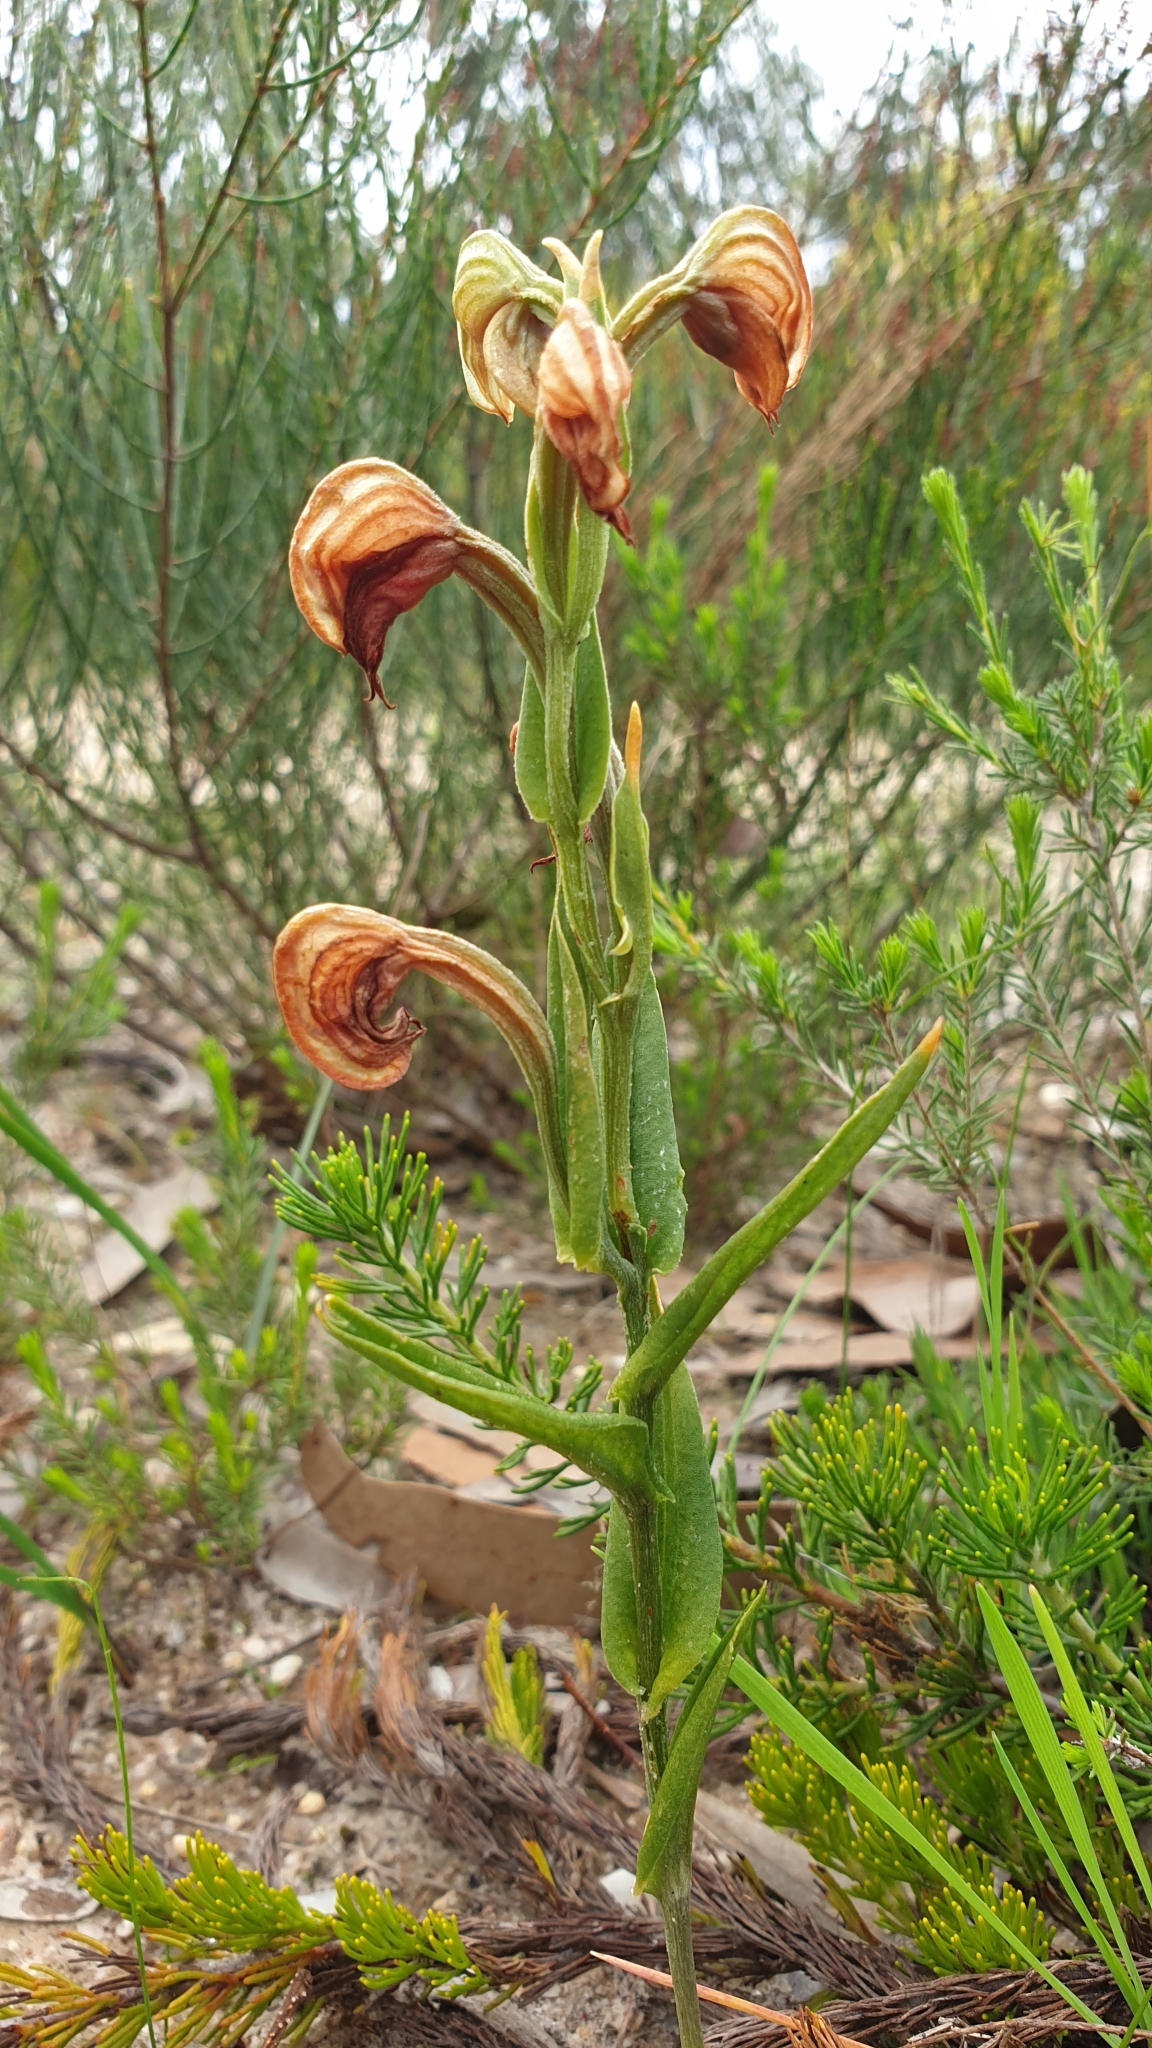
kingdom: Plantae
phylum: Tracheophyta
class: Liliopsida
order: Asparagales
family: Orchidaceae
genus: Pterostylis
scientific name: Pterostylis sanguinea
